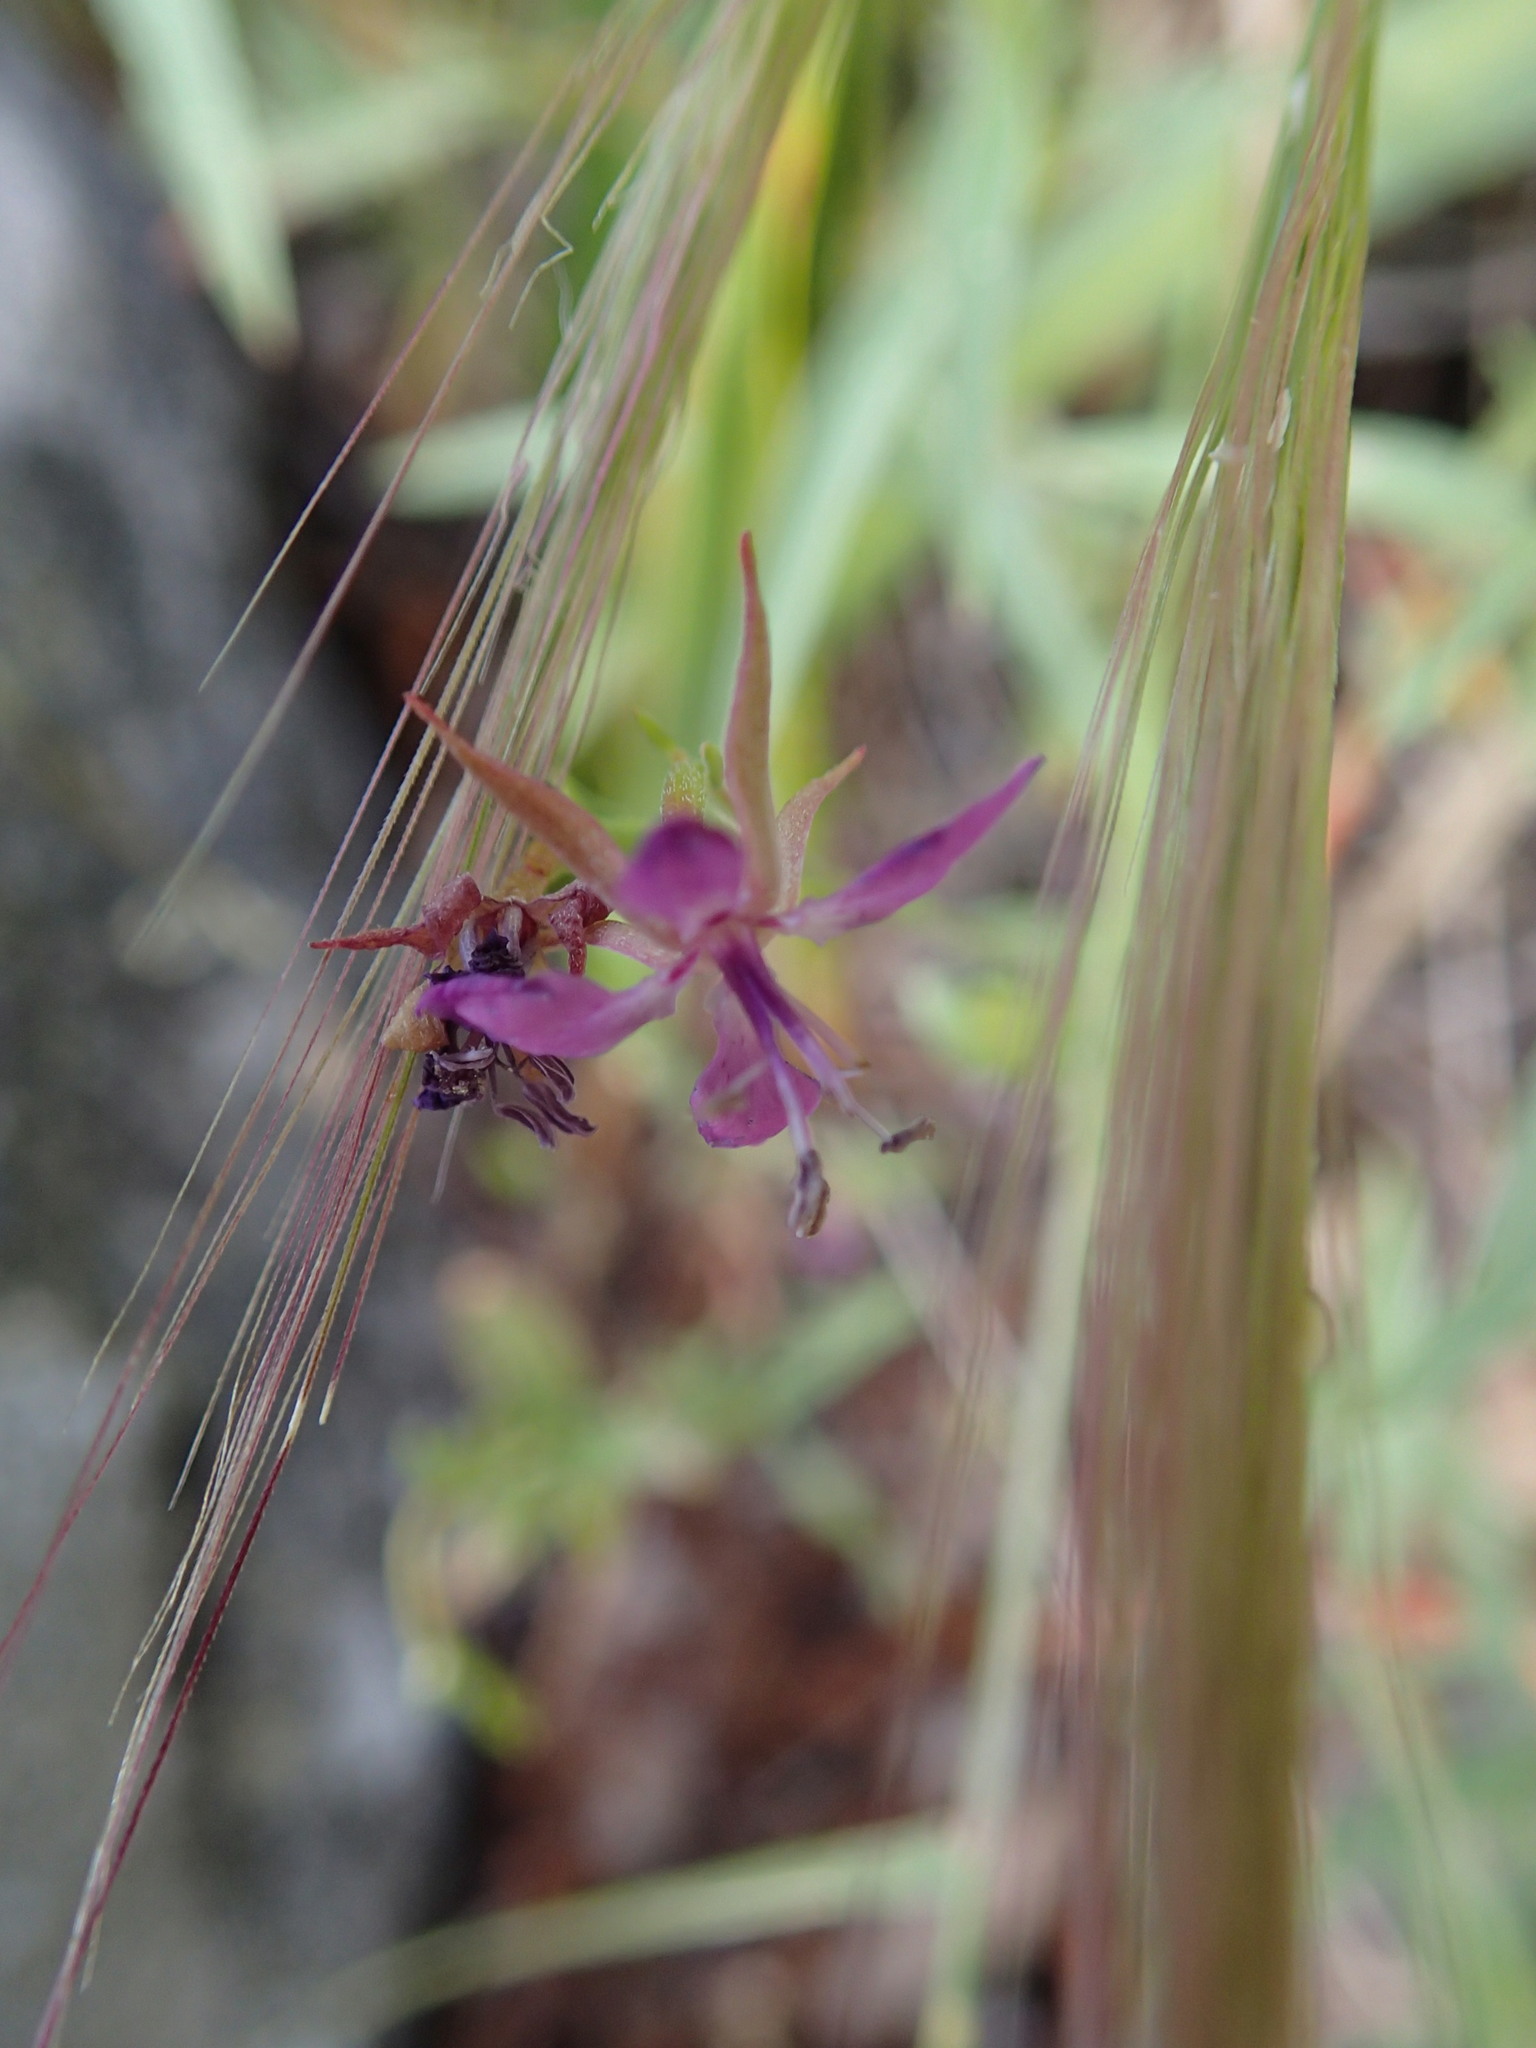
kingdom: Plantae
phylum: Tracheophyta
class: Magnoliopsida
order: Myrtales
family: Onagraceae
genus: Clarkia
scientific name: Clarkia rhomboidea
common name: Broadleaf clarkia
